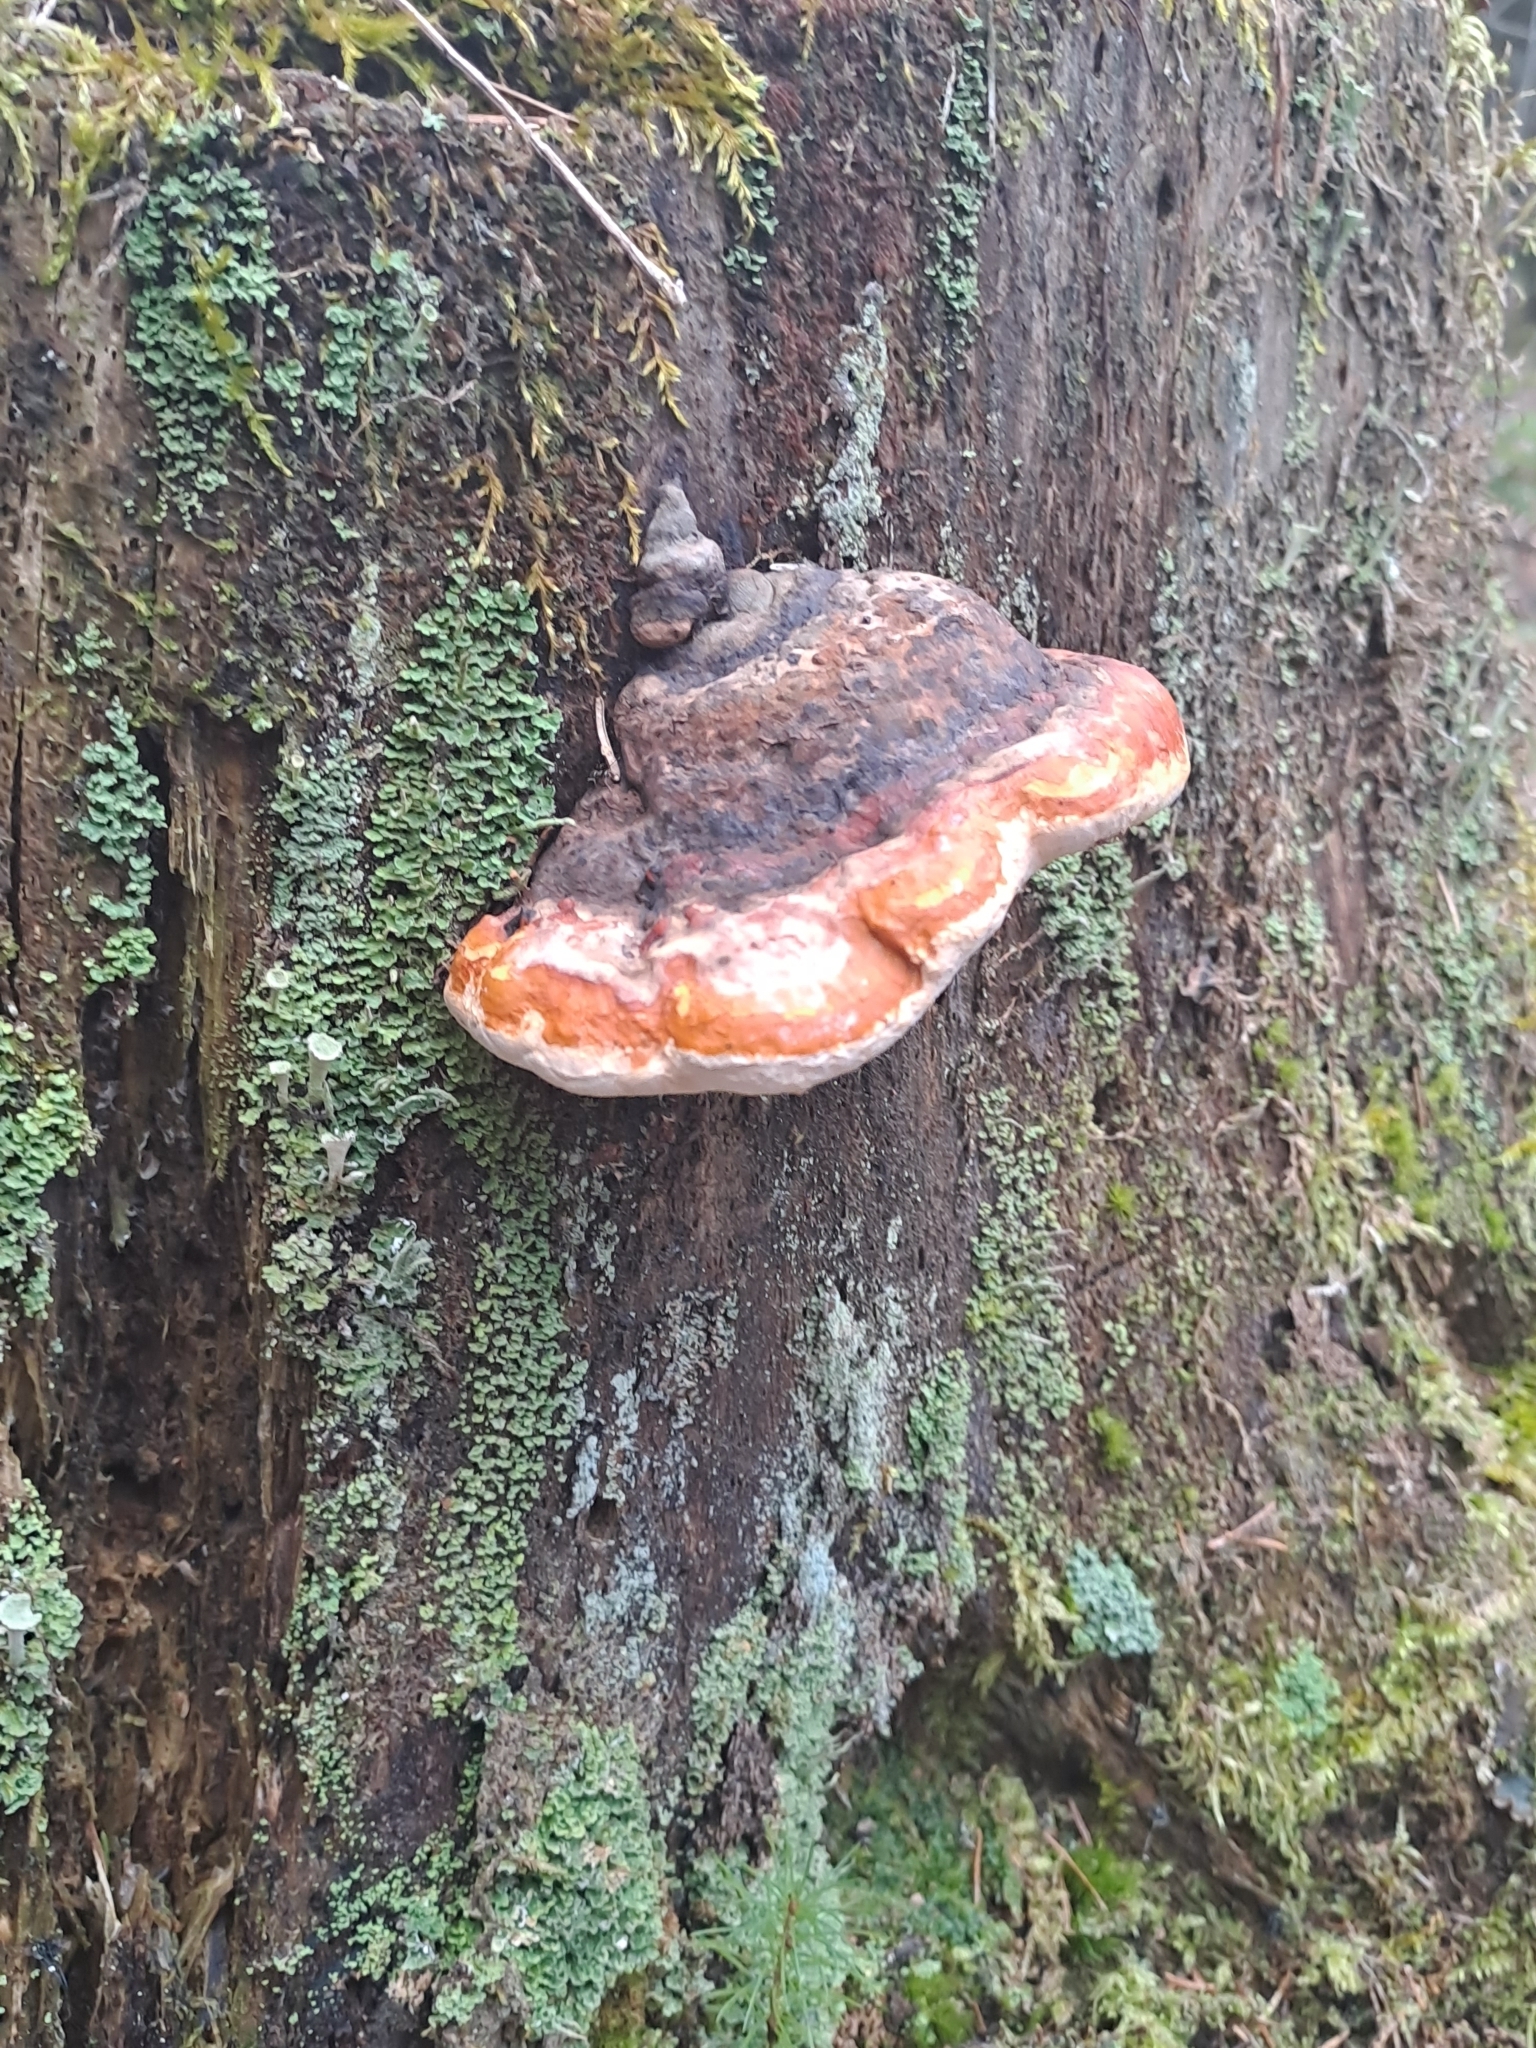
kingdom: Fungi
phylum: Basidiomycota
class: Agaricomycetes
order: Polyporales
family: Fomitopsidaceae
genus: Fomitopsis
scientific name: Fomitopsis pinicola
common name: Red-belted bracket
